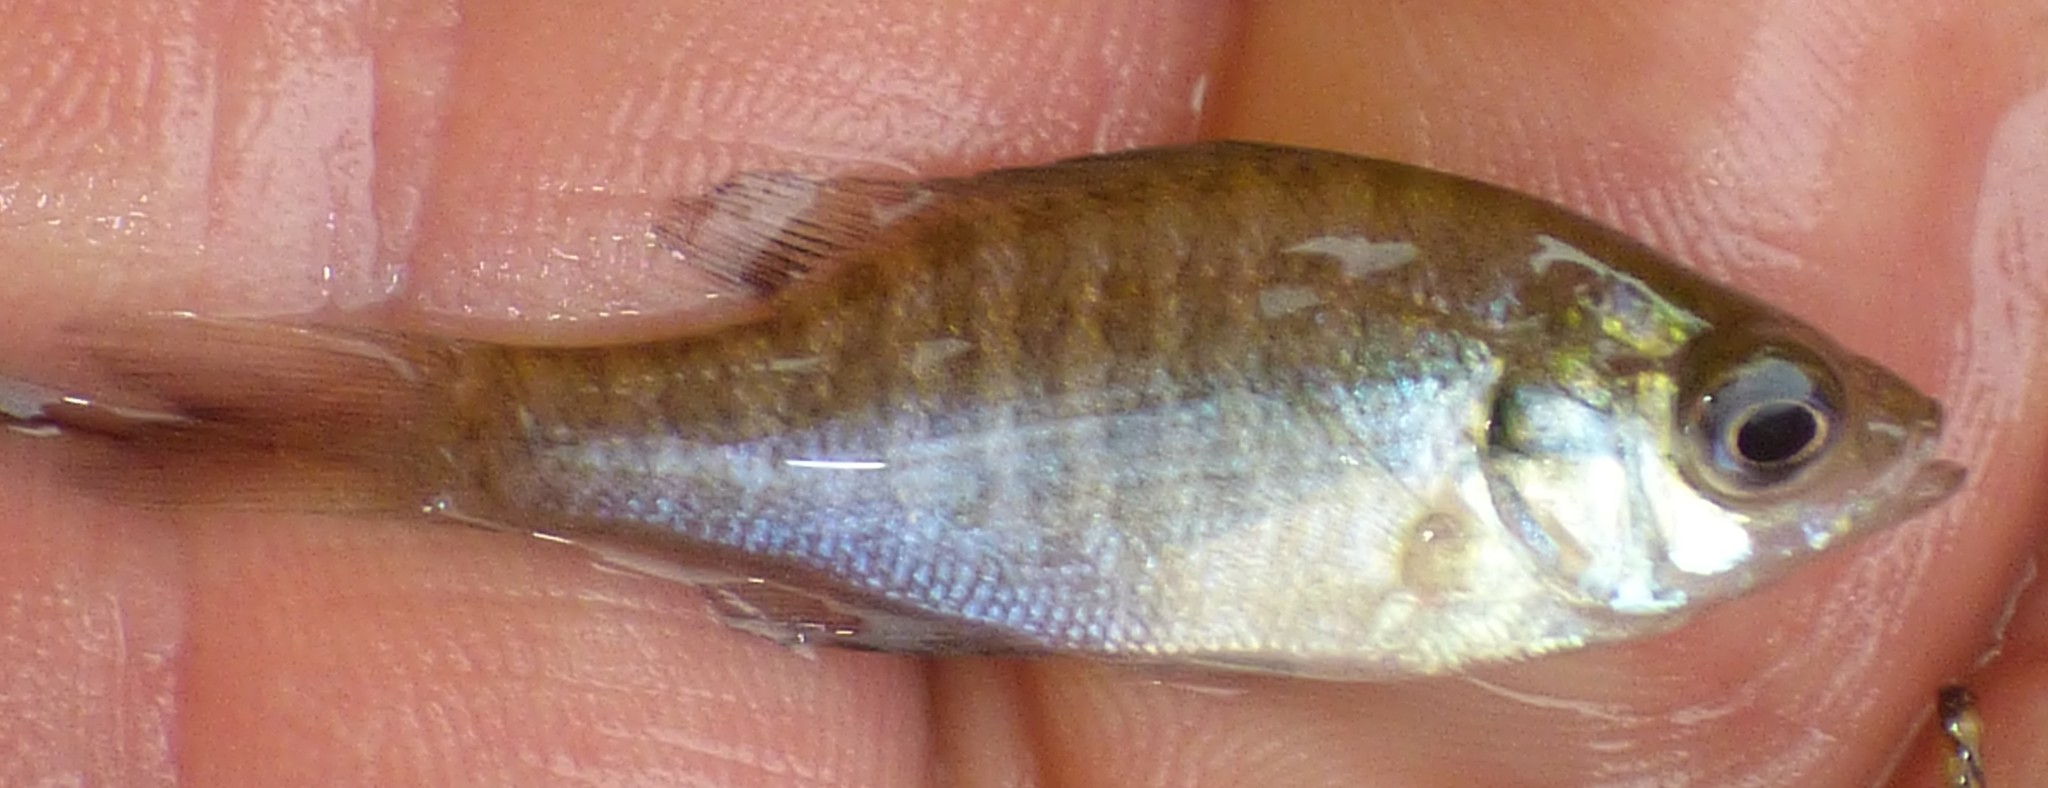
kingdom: Animalia
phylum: Chordata
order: Perciformes
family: Centrarchidae
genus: Lepomis
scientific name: Lepomis macrochirus
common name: Bluegill
